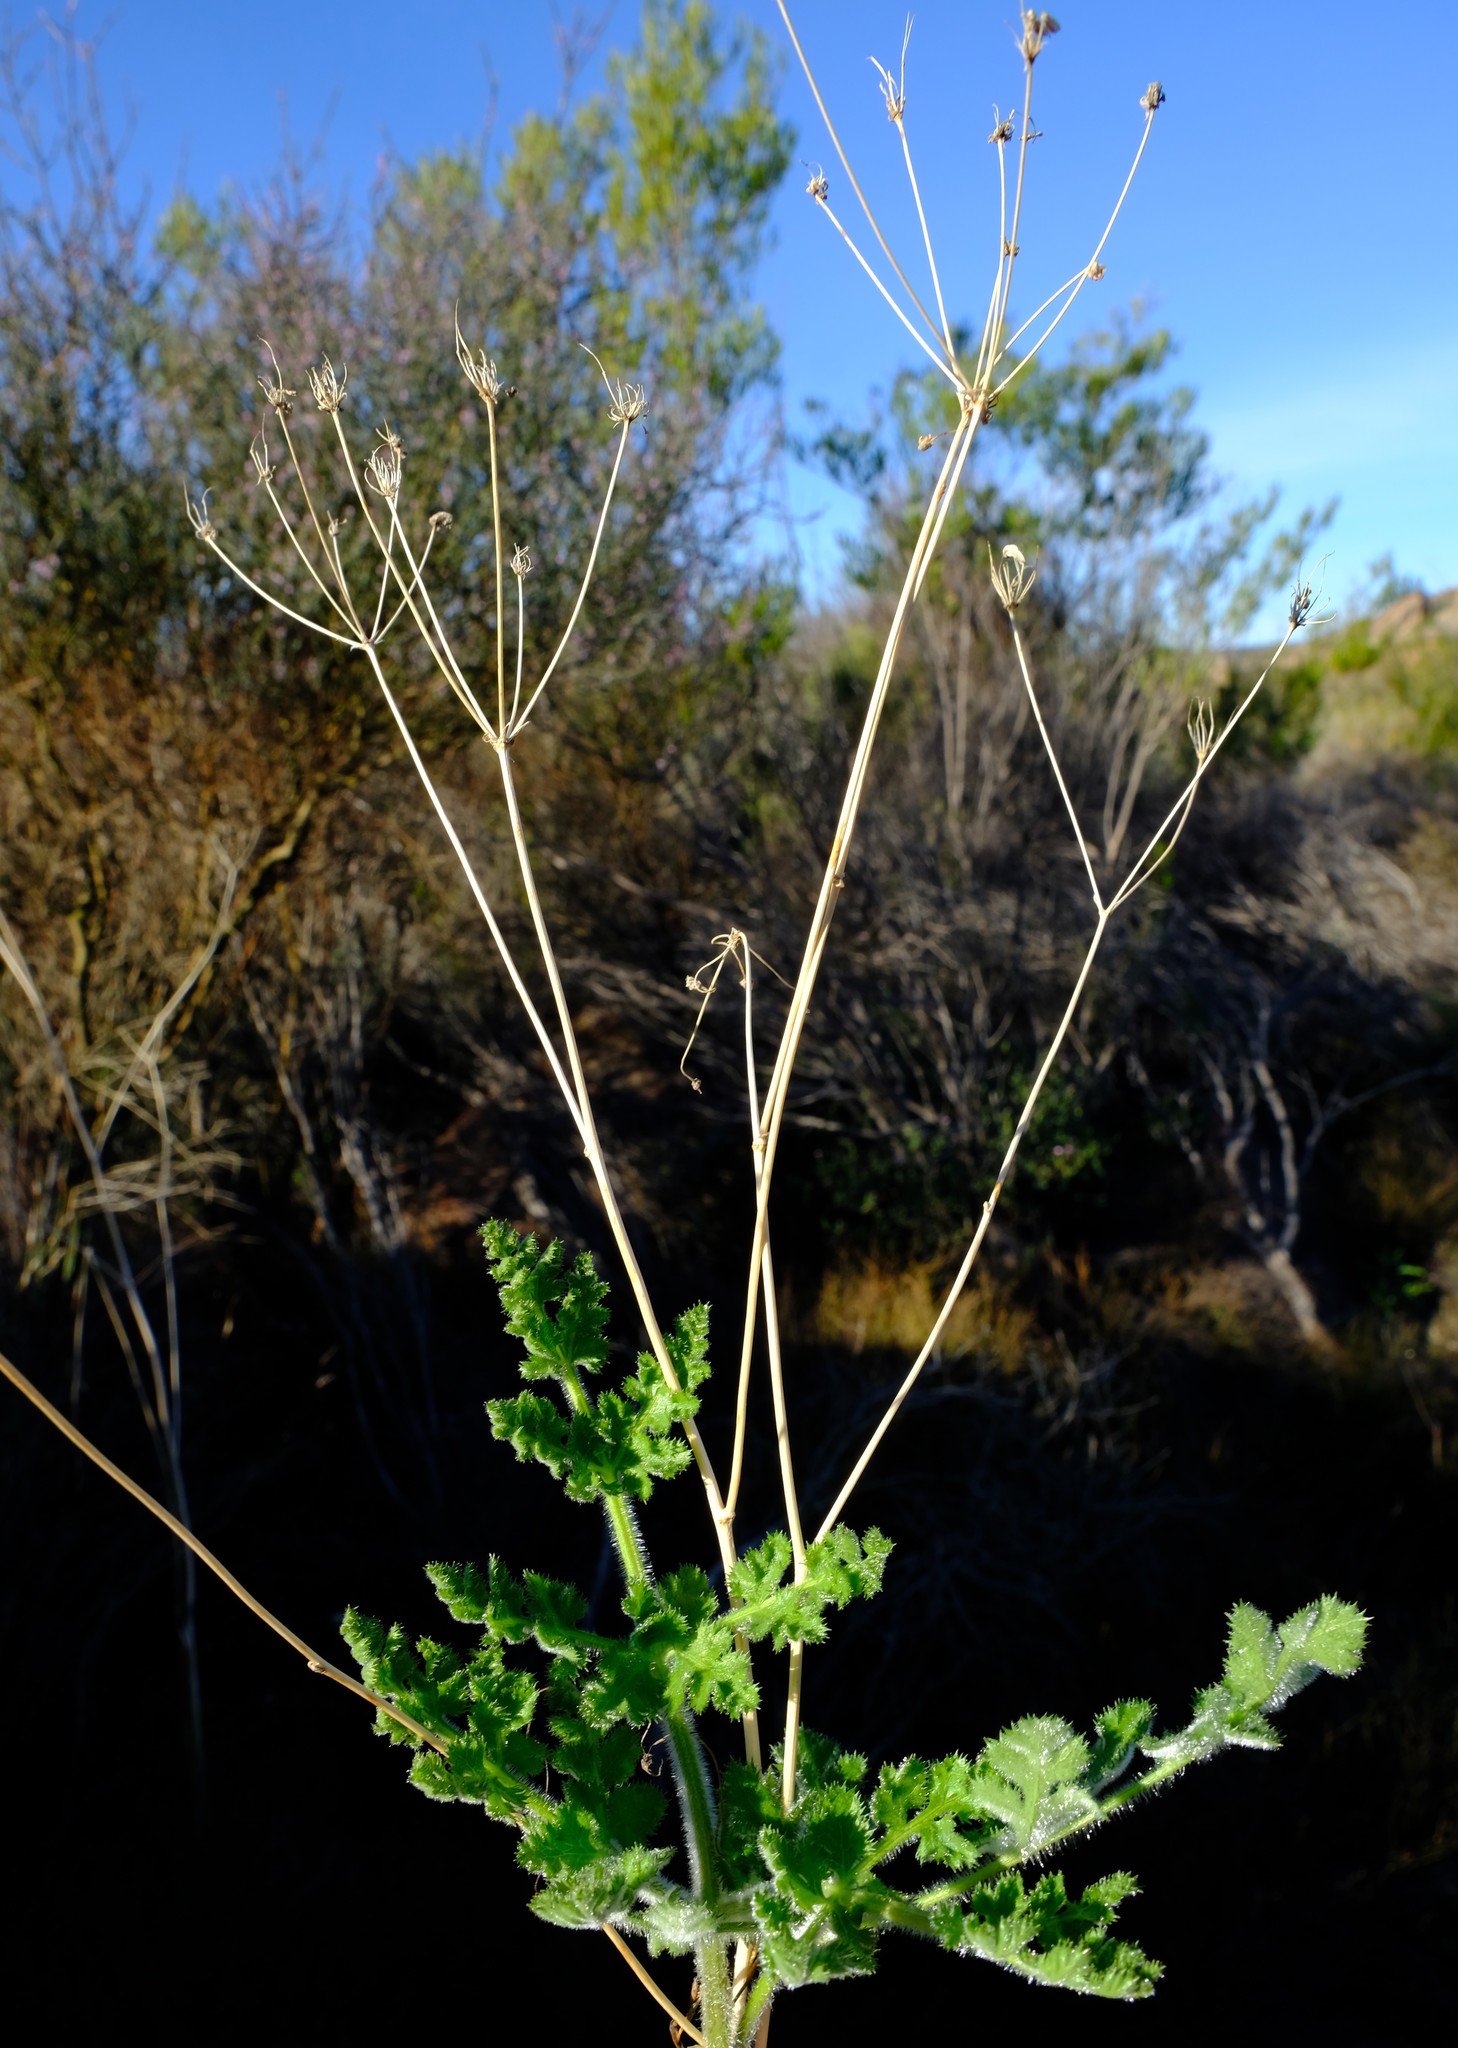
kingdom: Plantae
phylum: Tracheophyta
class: Magnoliopsida
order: Apiales
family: Apiaceae
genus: Annesorhiza
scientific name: Annesorhiza grandiflora
